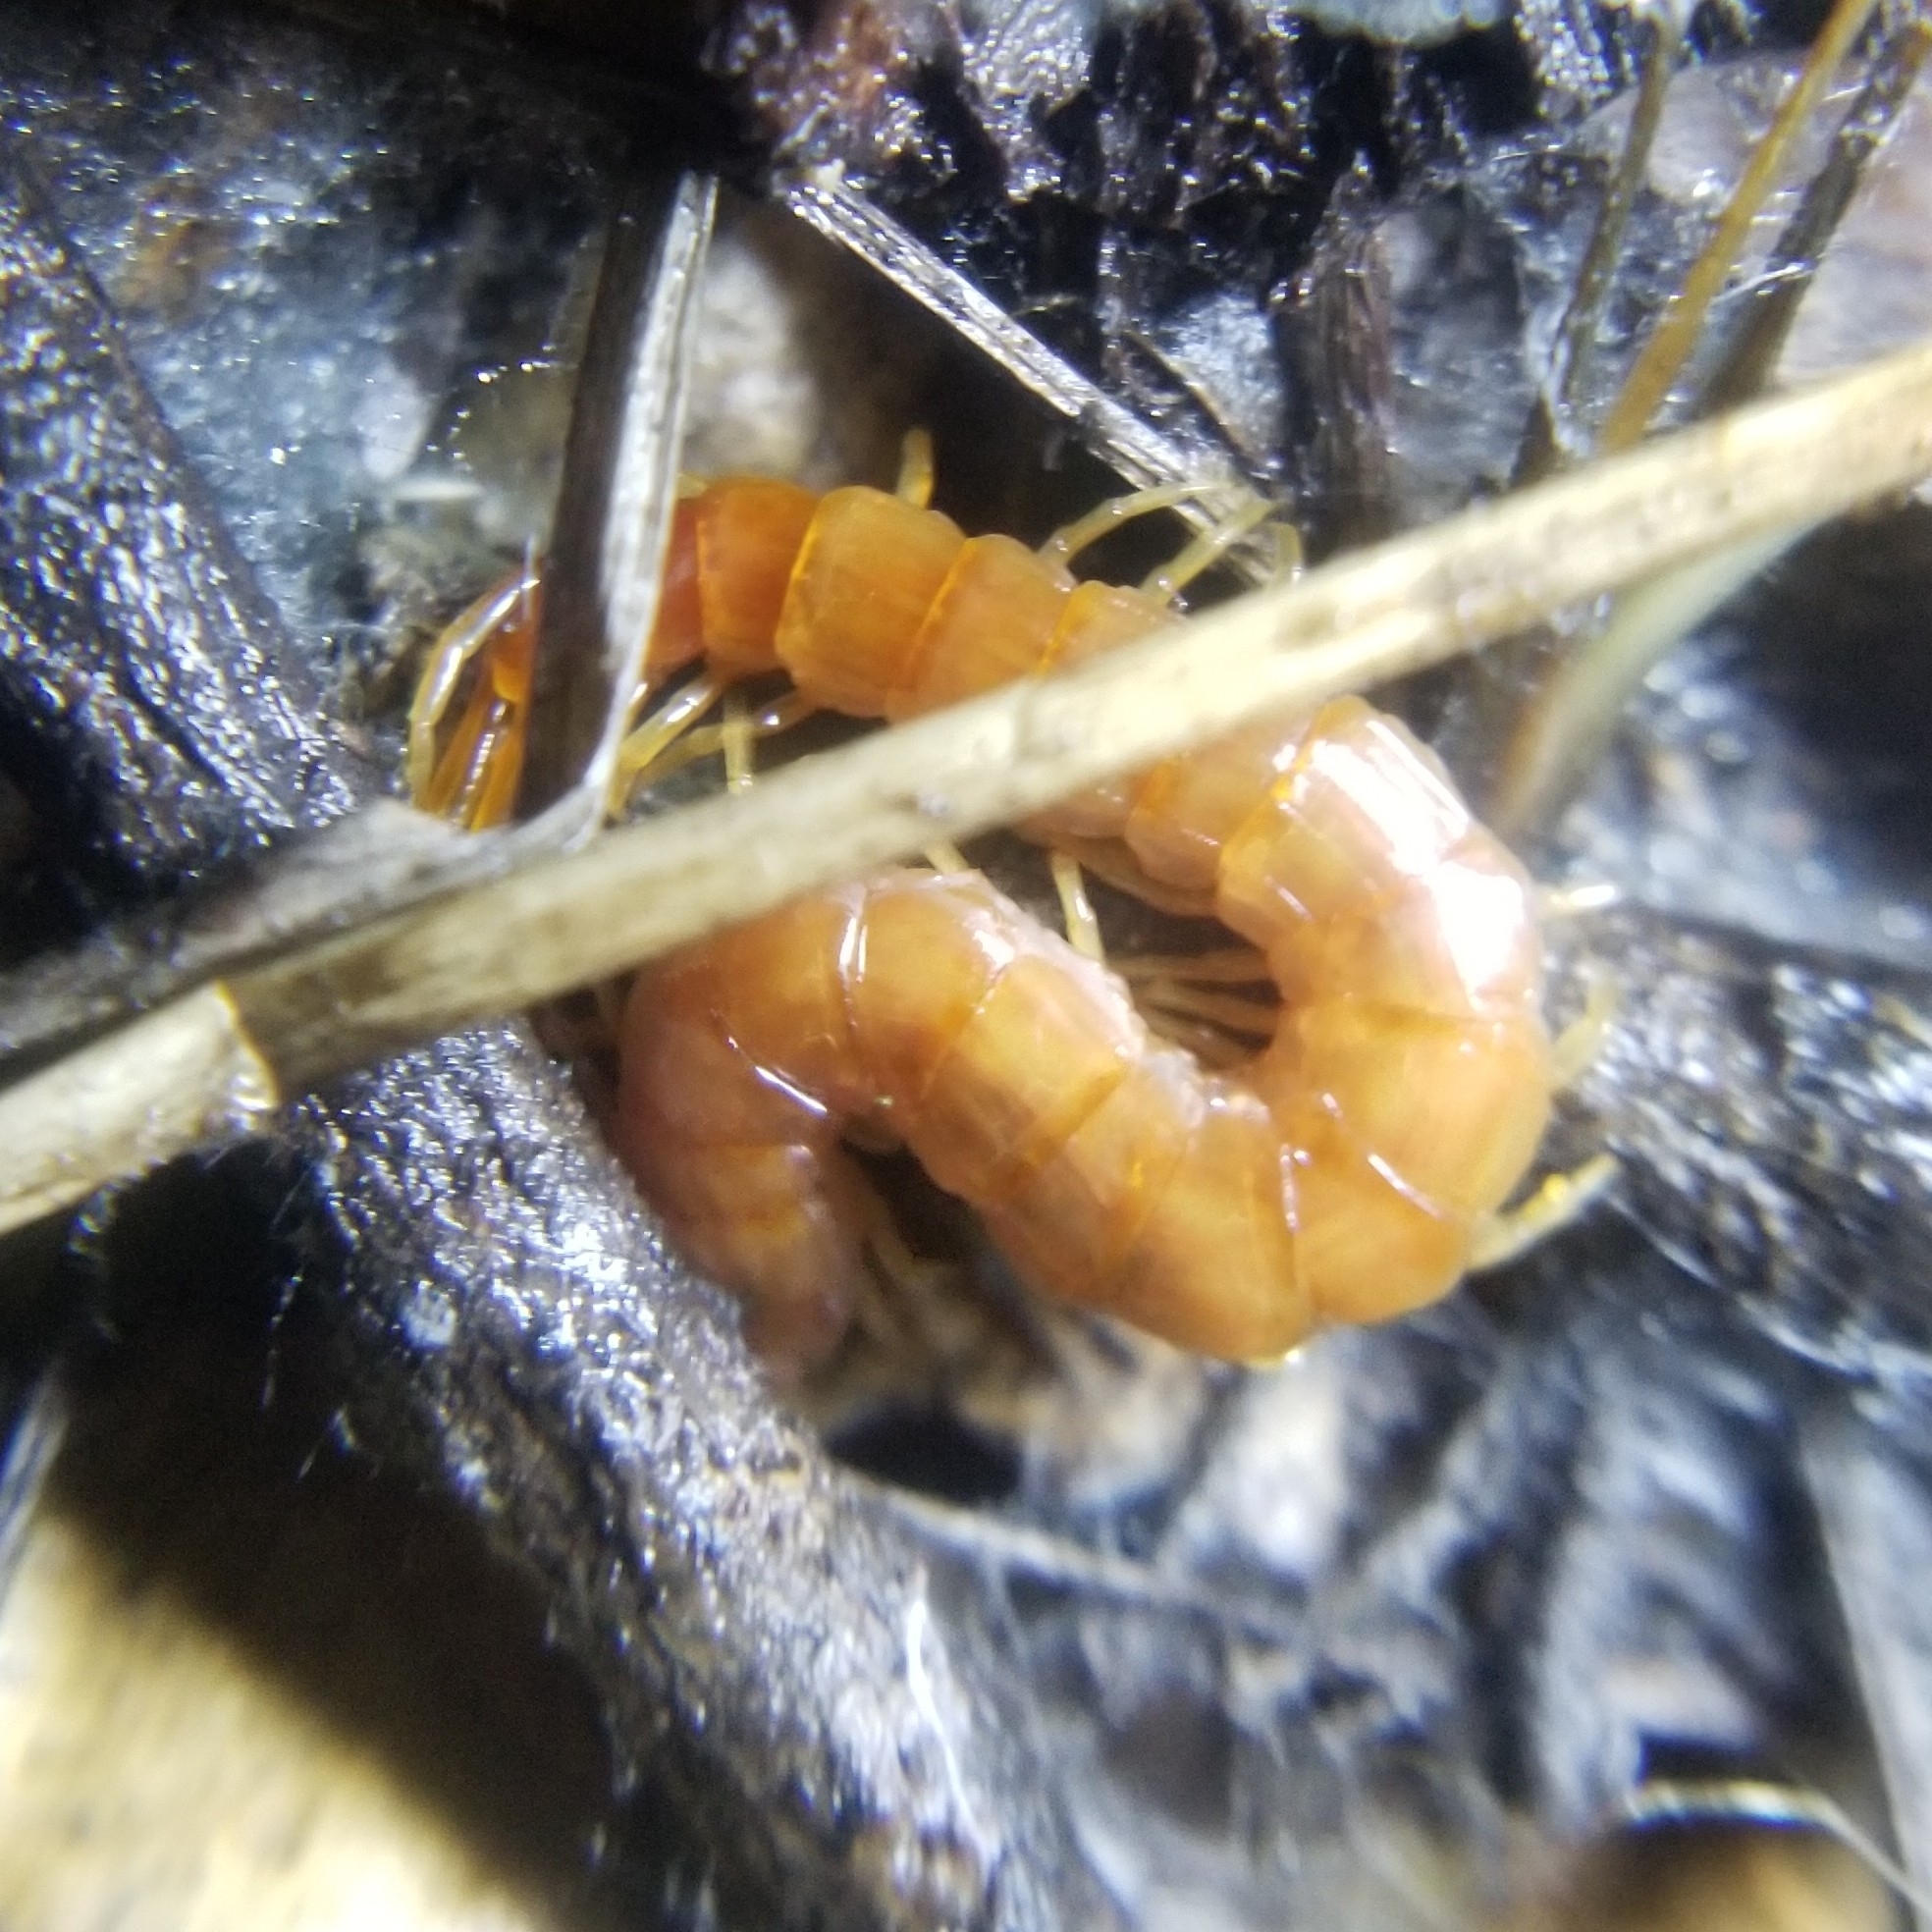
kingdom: Animalia
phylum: Arthropoda
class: Chilopoda
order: Scolopendromorpha
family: Scolopocryptopidae
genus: Scolopocryptops
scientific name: Scolopocryptops spinicaudus
